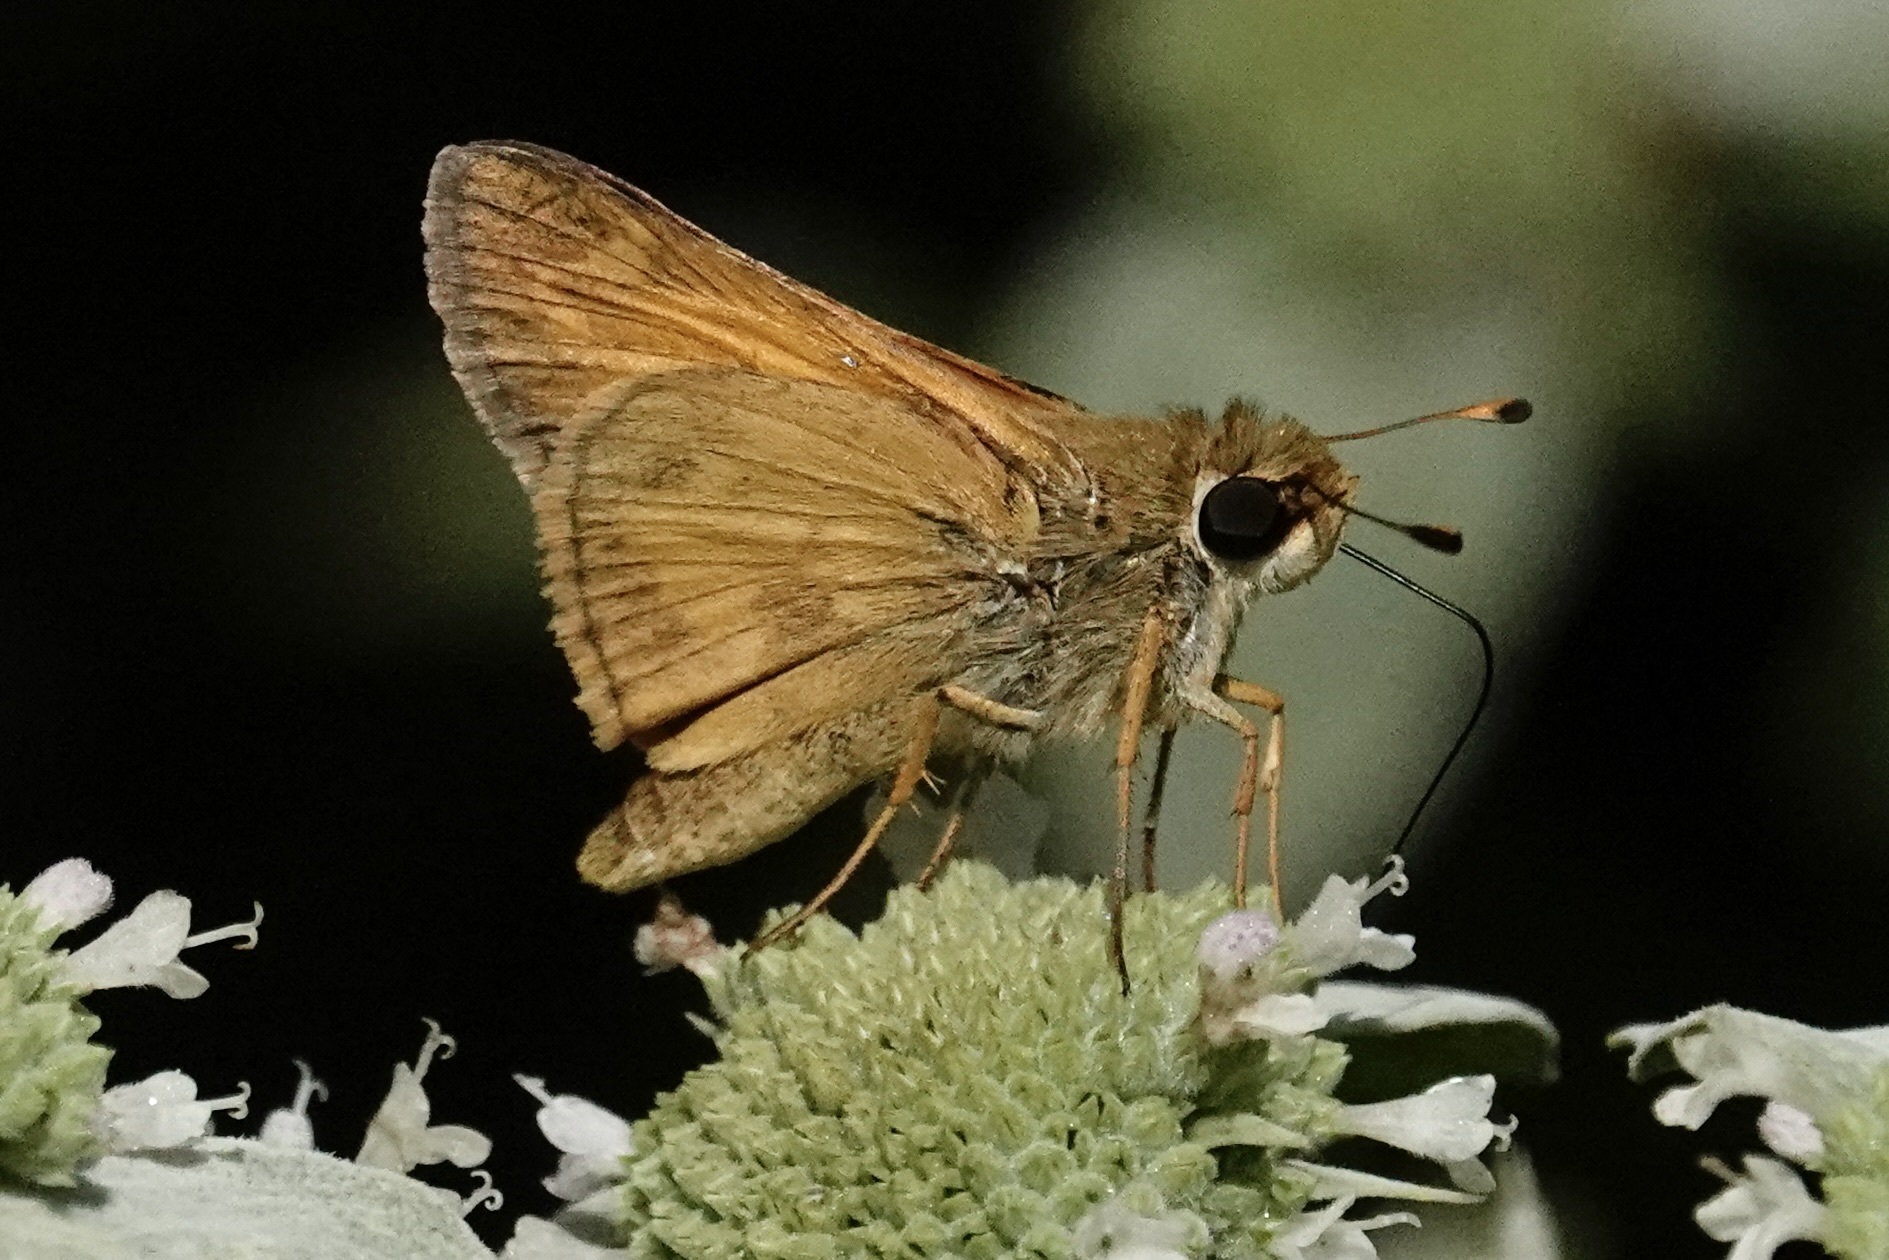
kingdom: Animalia
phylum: Arthropoda
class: Insecta
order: Lepidoptera
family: Hesperiidae
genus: Atalopedes
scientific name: Atalopedes
